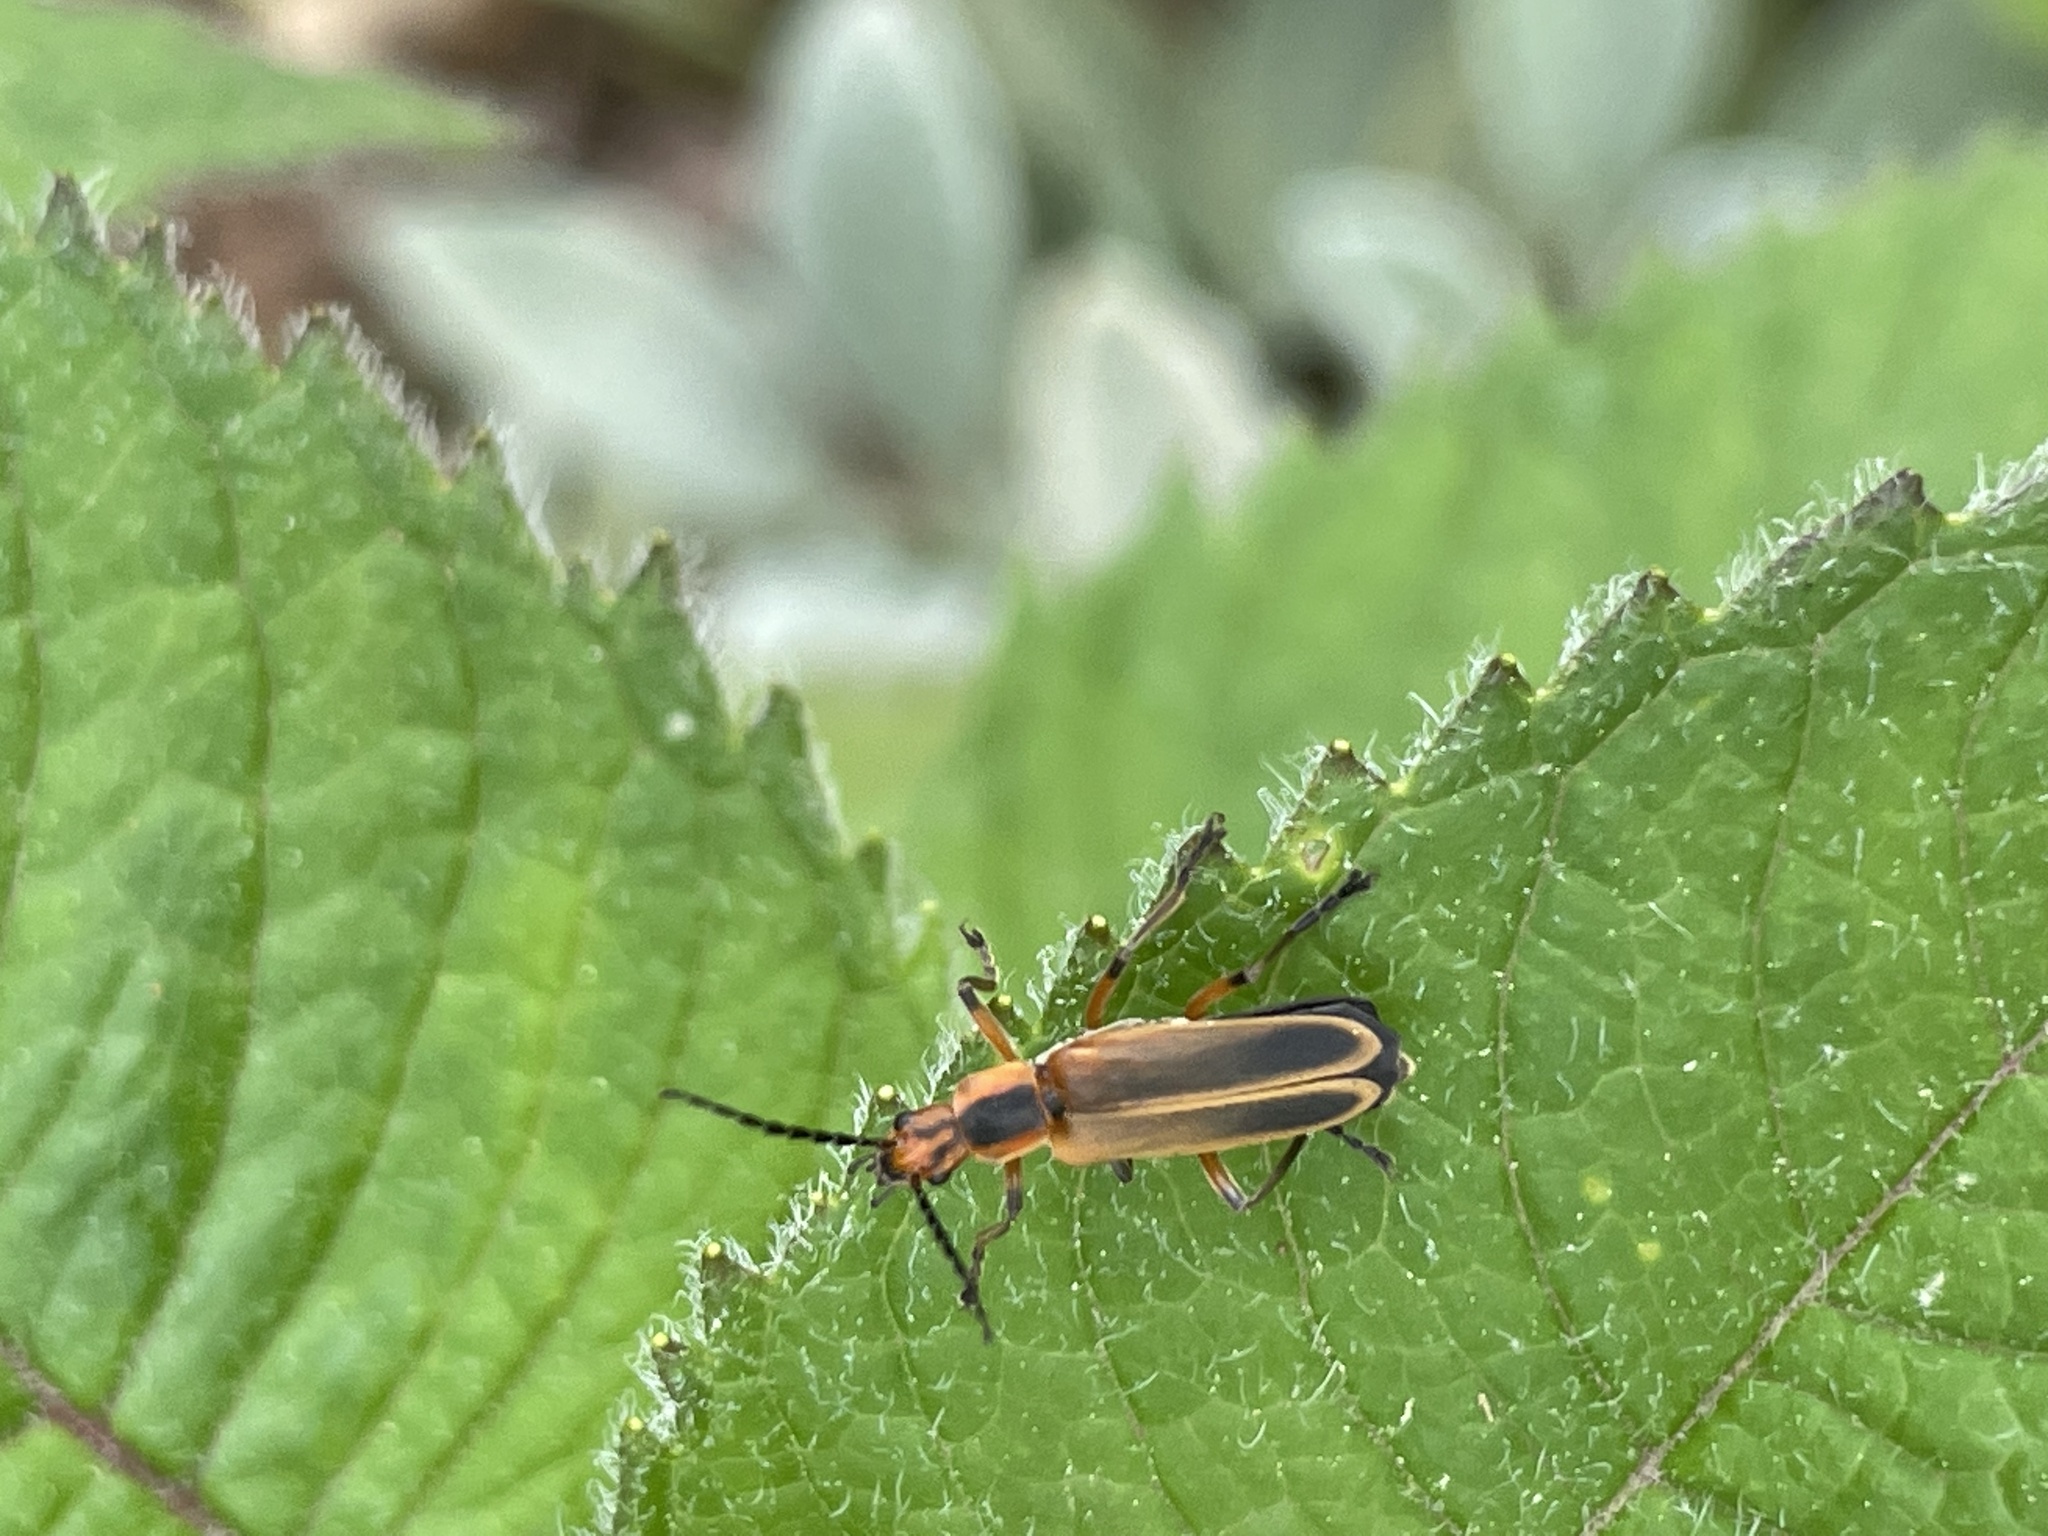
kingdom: Animalia
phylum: Arthropoda
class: Insecta
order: Coleoptera
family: Cantharidae
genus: Chauliognathus
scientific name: Chauliognathus marginatus
